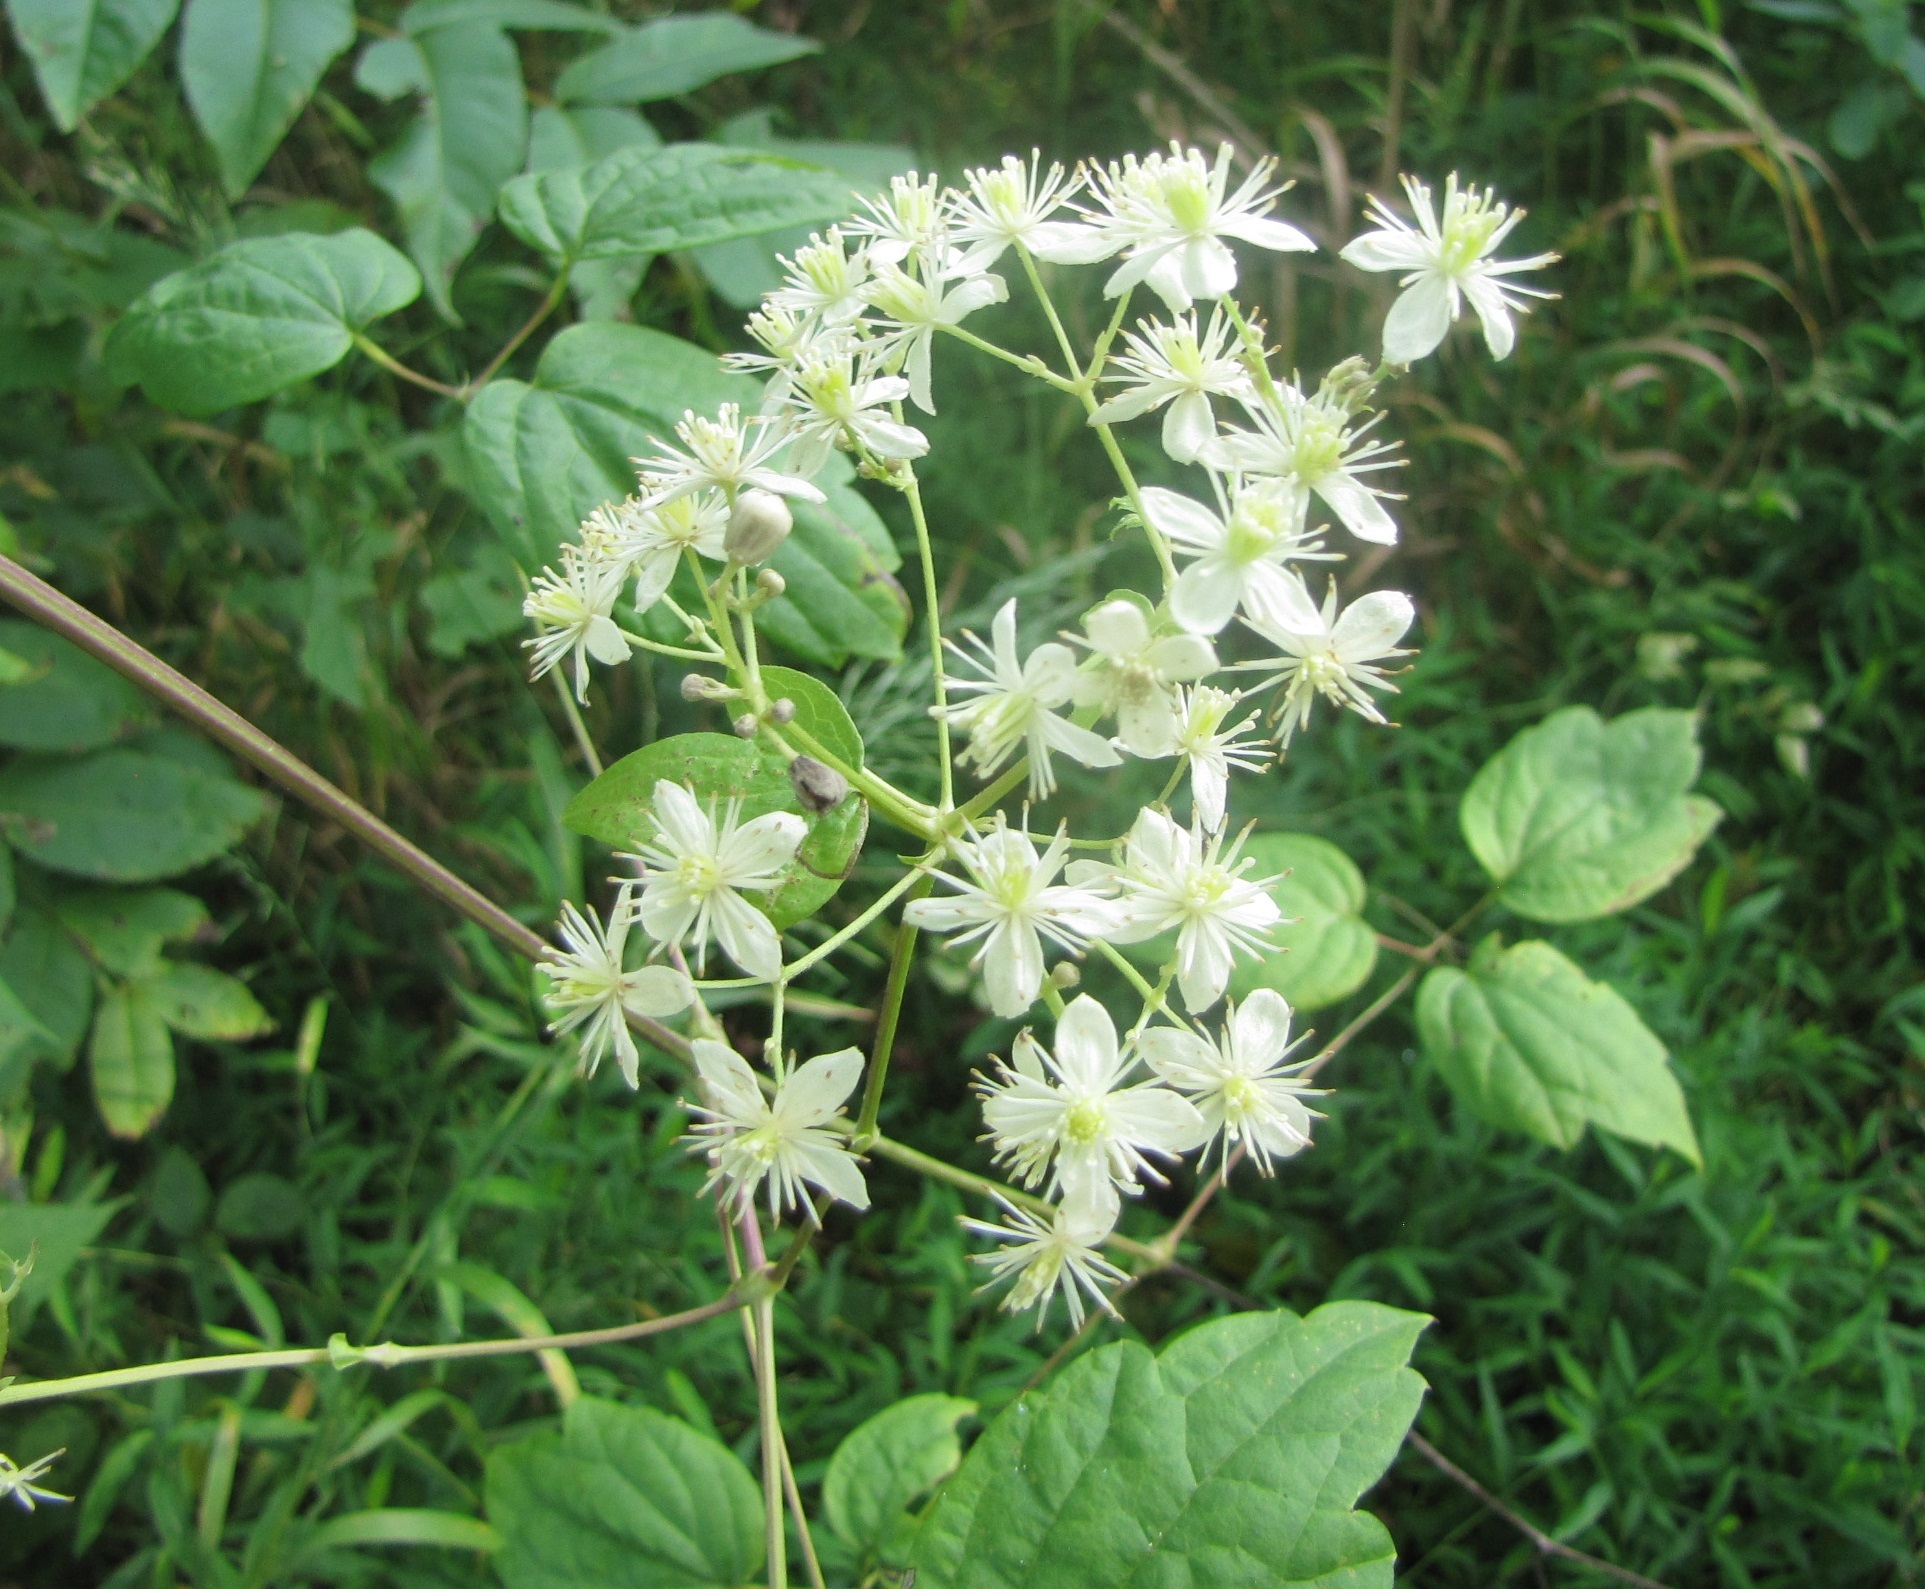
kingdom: Plantae
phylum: Tracheophyta
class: Magnoliopsida
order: Ranunculales
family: Ranunculaceae
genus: Clematis
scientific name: Clematis virginiana
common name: Virgin's-bower
